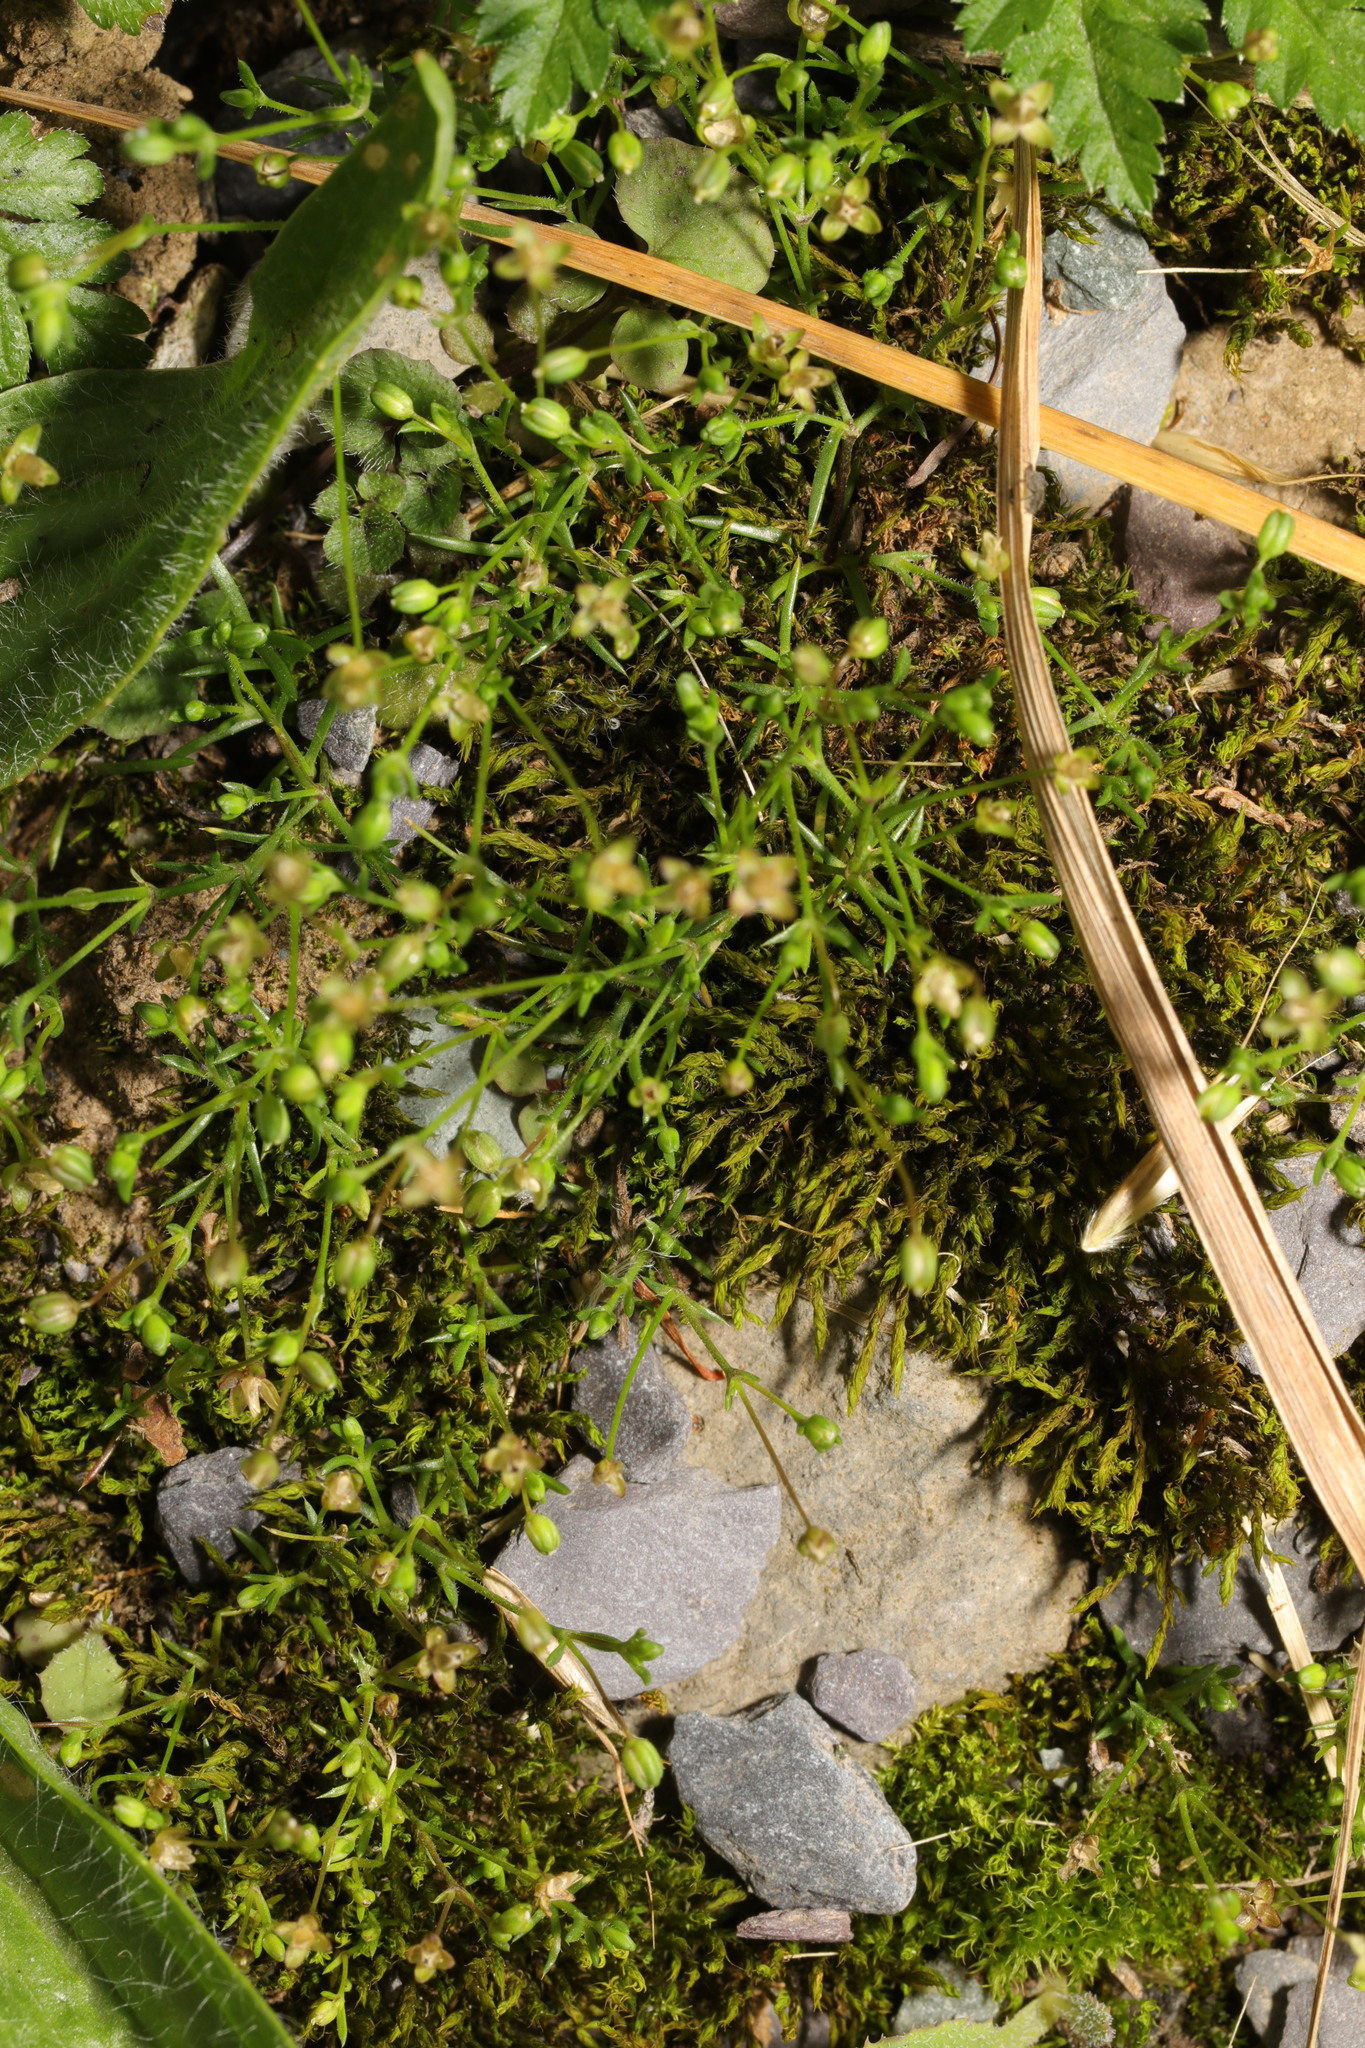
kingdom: Plantae
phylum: Tracheophyta
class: Magnoliopsida
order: Caryophyllales
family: Caryophyllaceae
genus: Sagina
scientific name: Sagina procumbens
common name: Procumbent pearlwort
